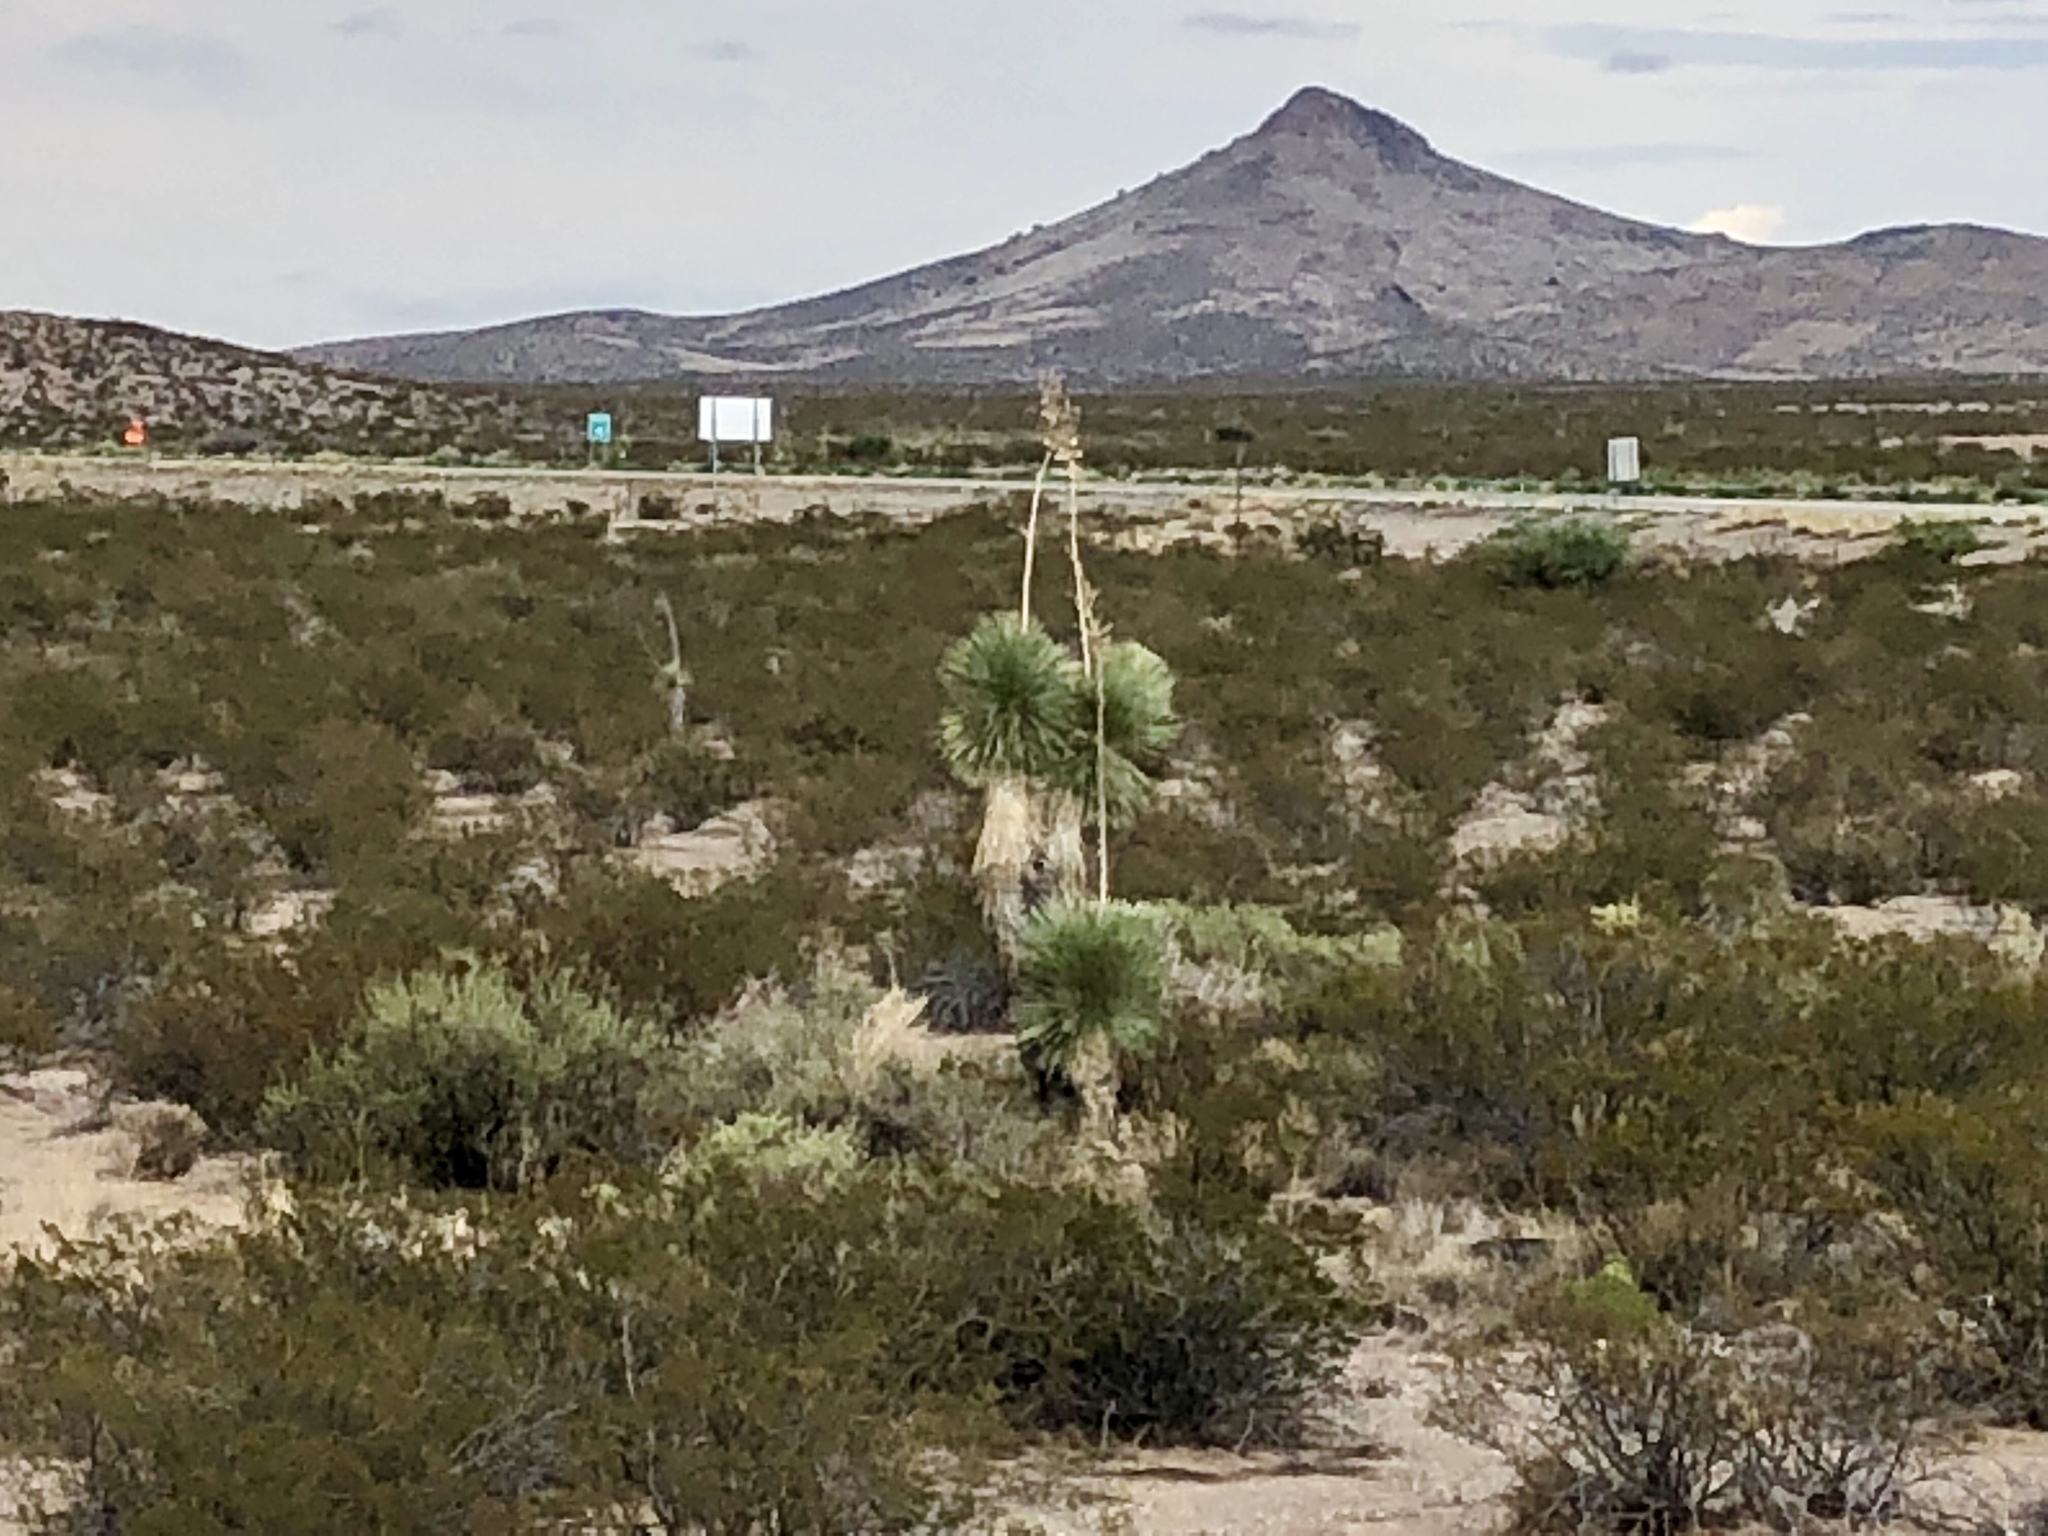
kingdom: Plantae
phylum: Tracheophyta
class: Liliopsida
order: Asparagales
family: Asparagaceae
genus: Yucca
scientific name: Yucca elata
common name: Palmella
